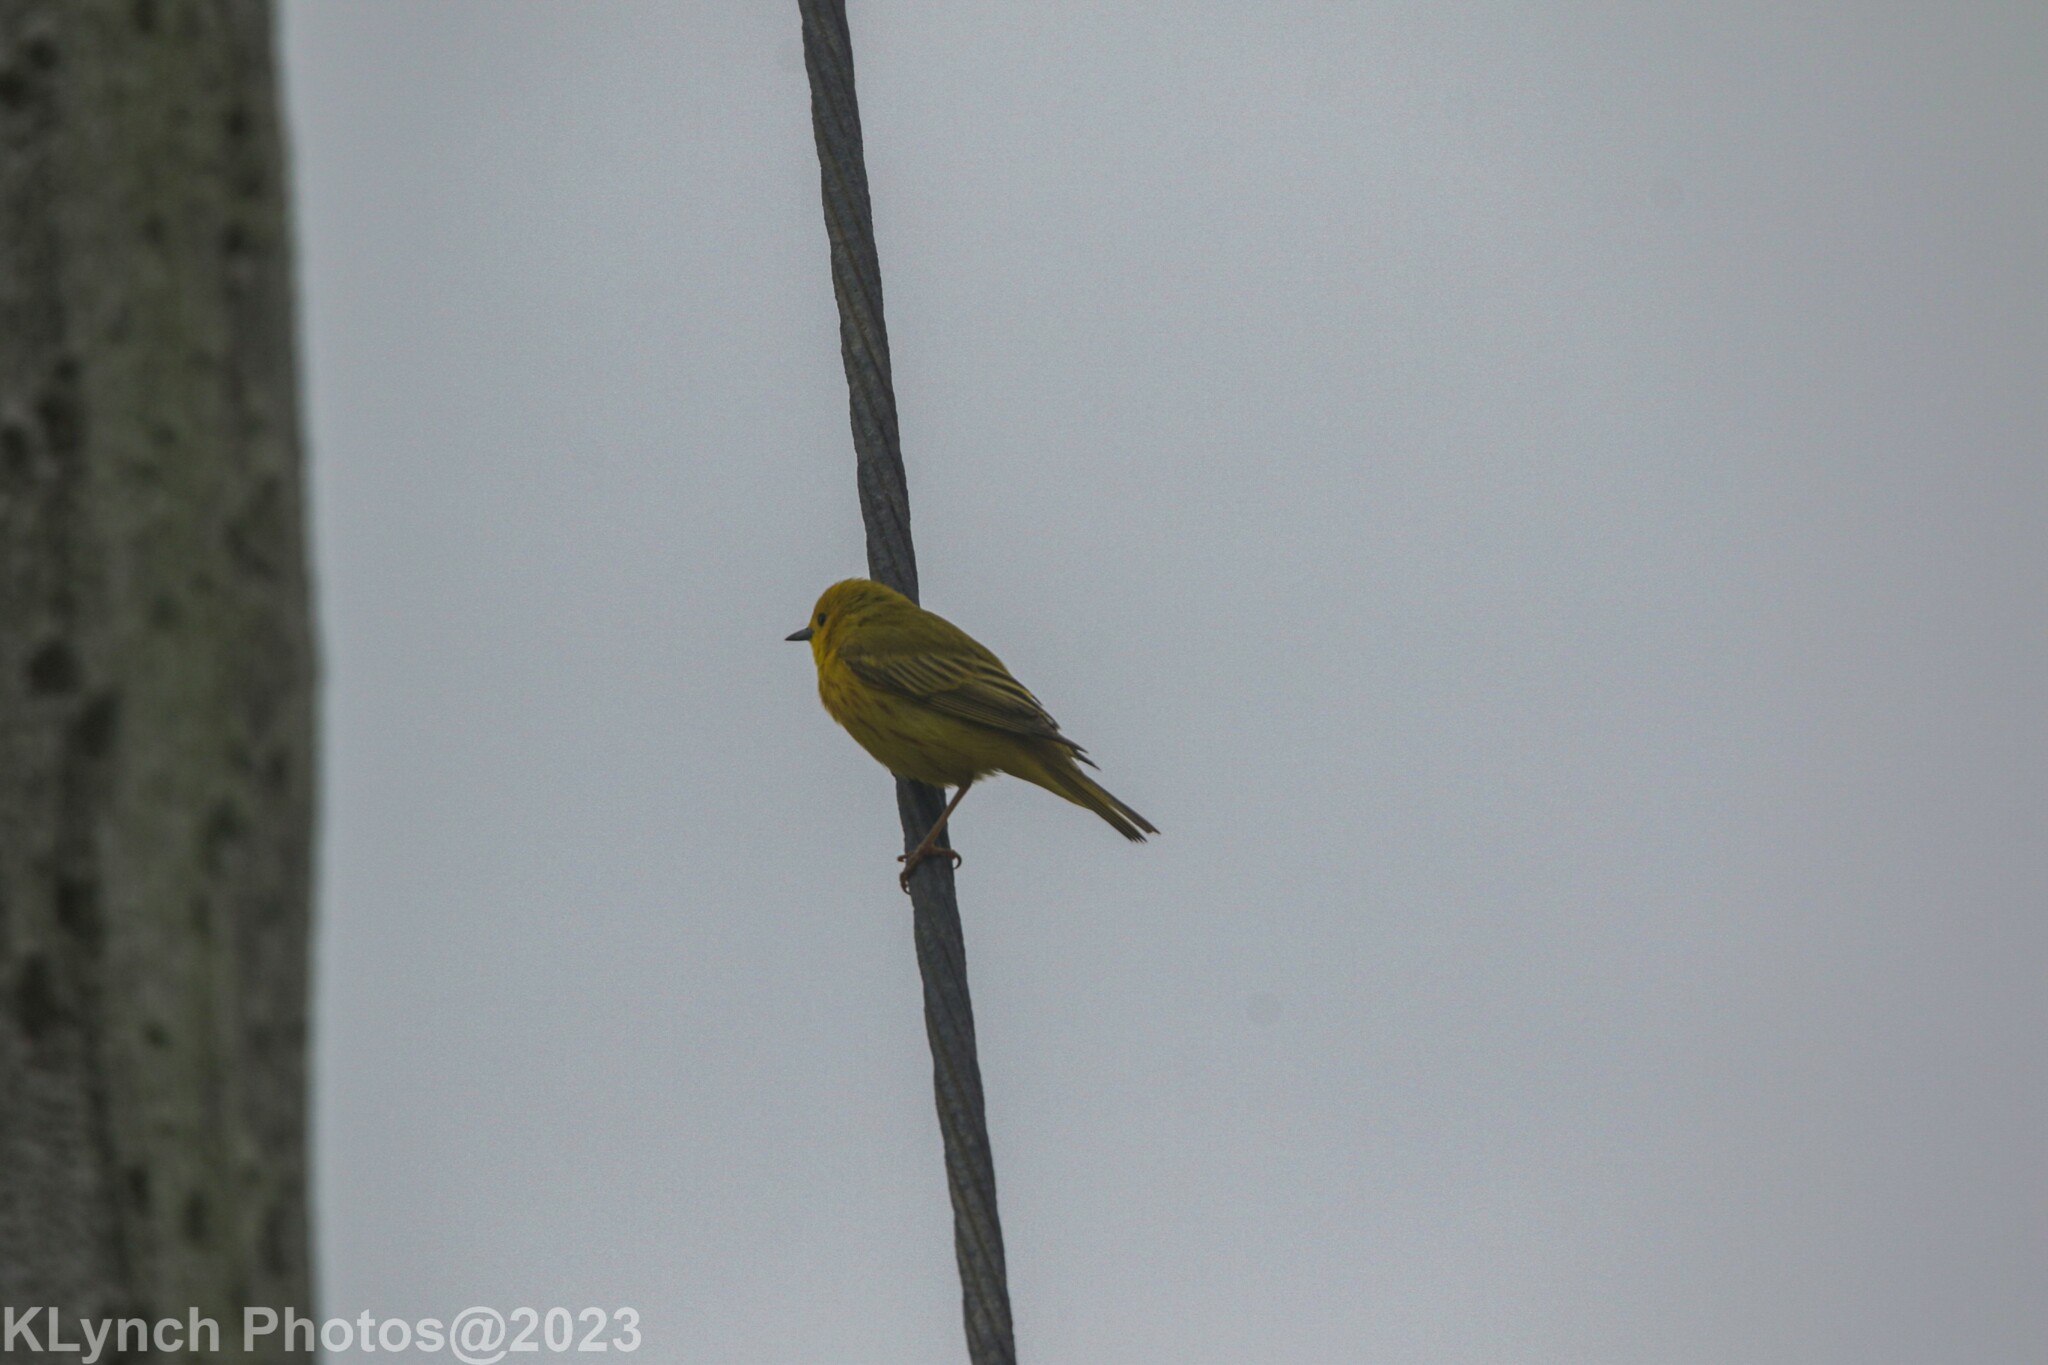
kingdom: Animalia
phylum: Chordata
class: Aves
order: Passeriformes
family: Parulidae
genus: Setophaga
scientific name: Setophaga petechia
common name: Yellow warbler
